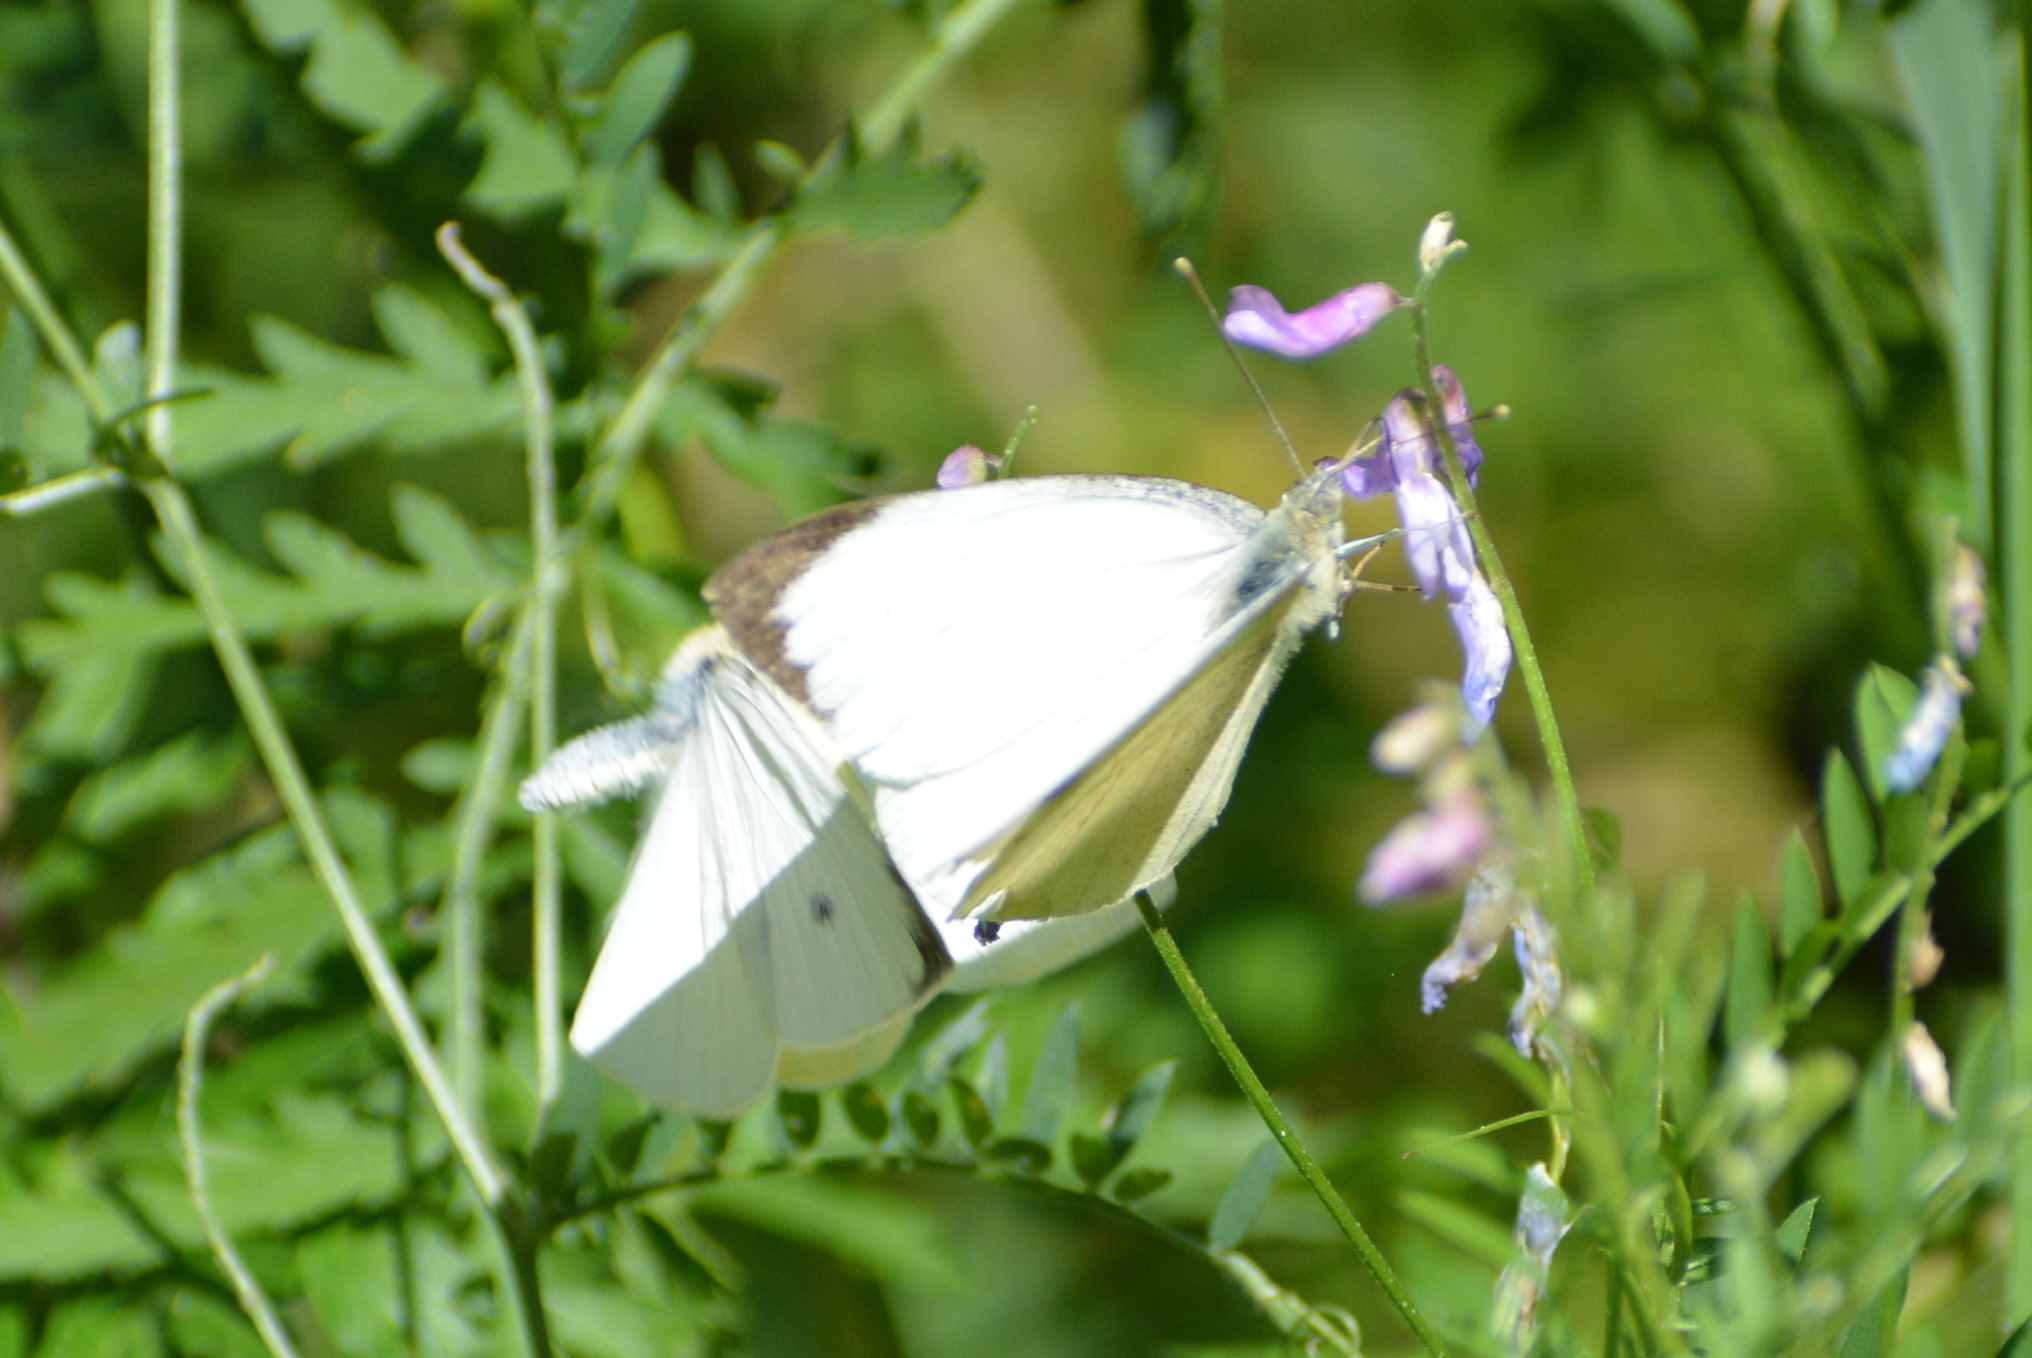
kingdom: Animalia
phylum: Arthropoda
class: Insecta
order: Lepidoptera
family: Pieridae
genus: Pieris
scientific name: Pieris brassicae
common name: Large white
